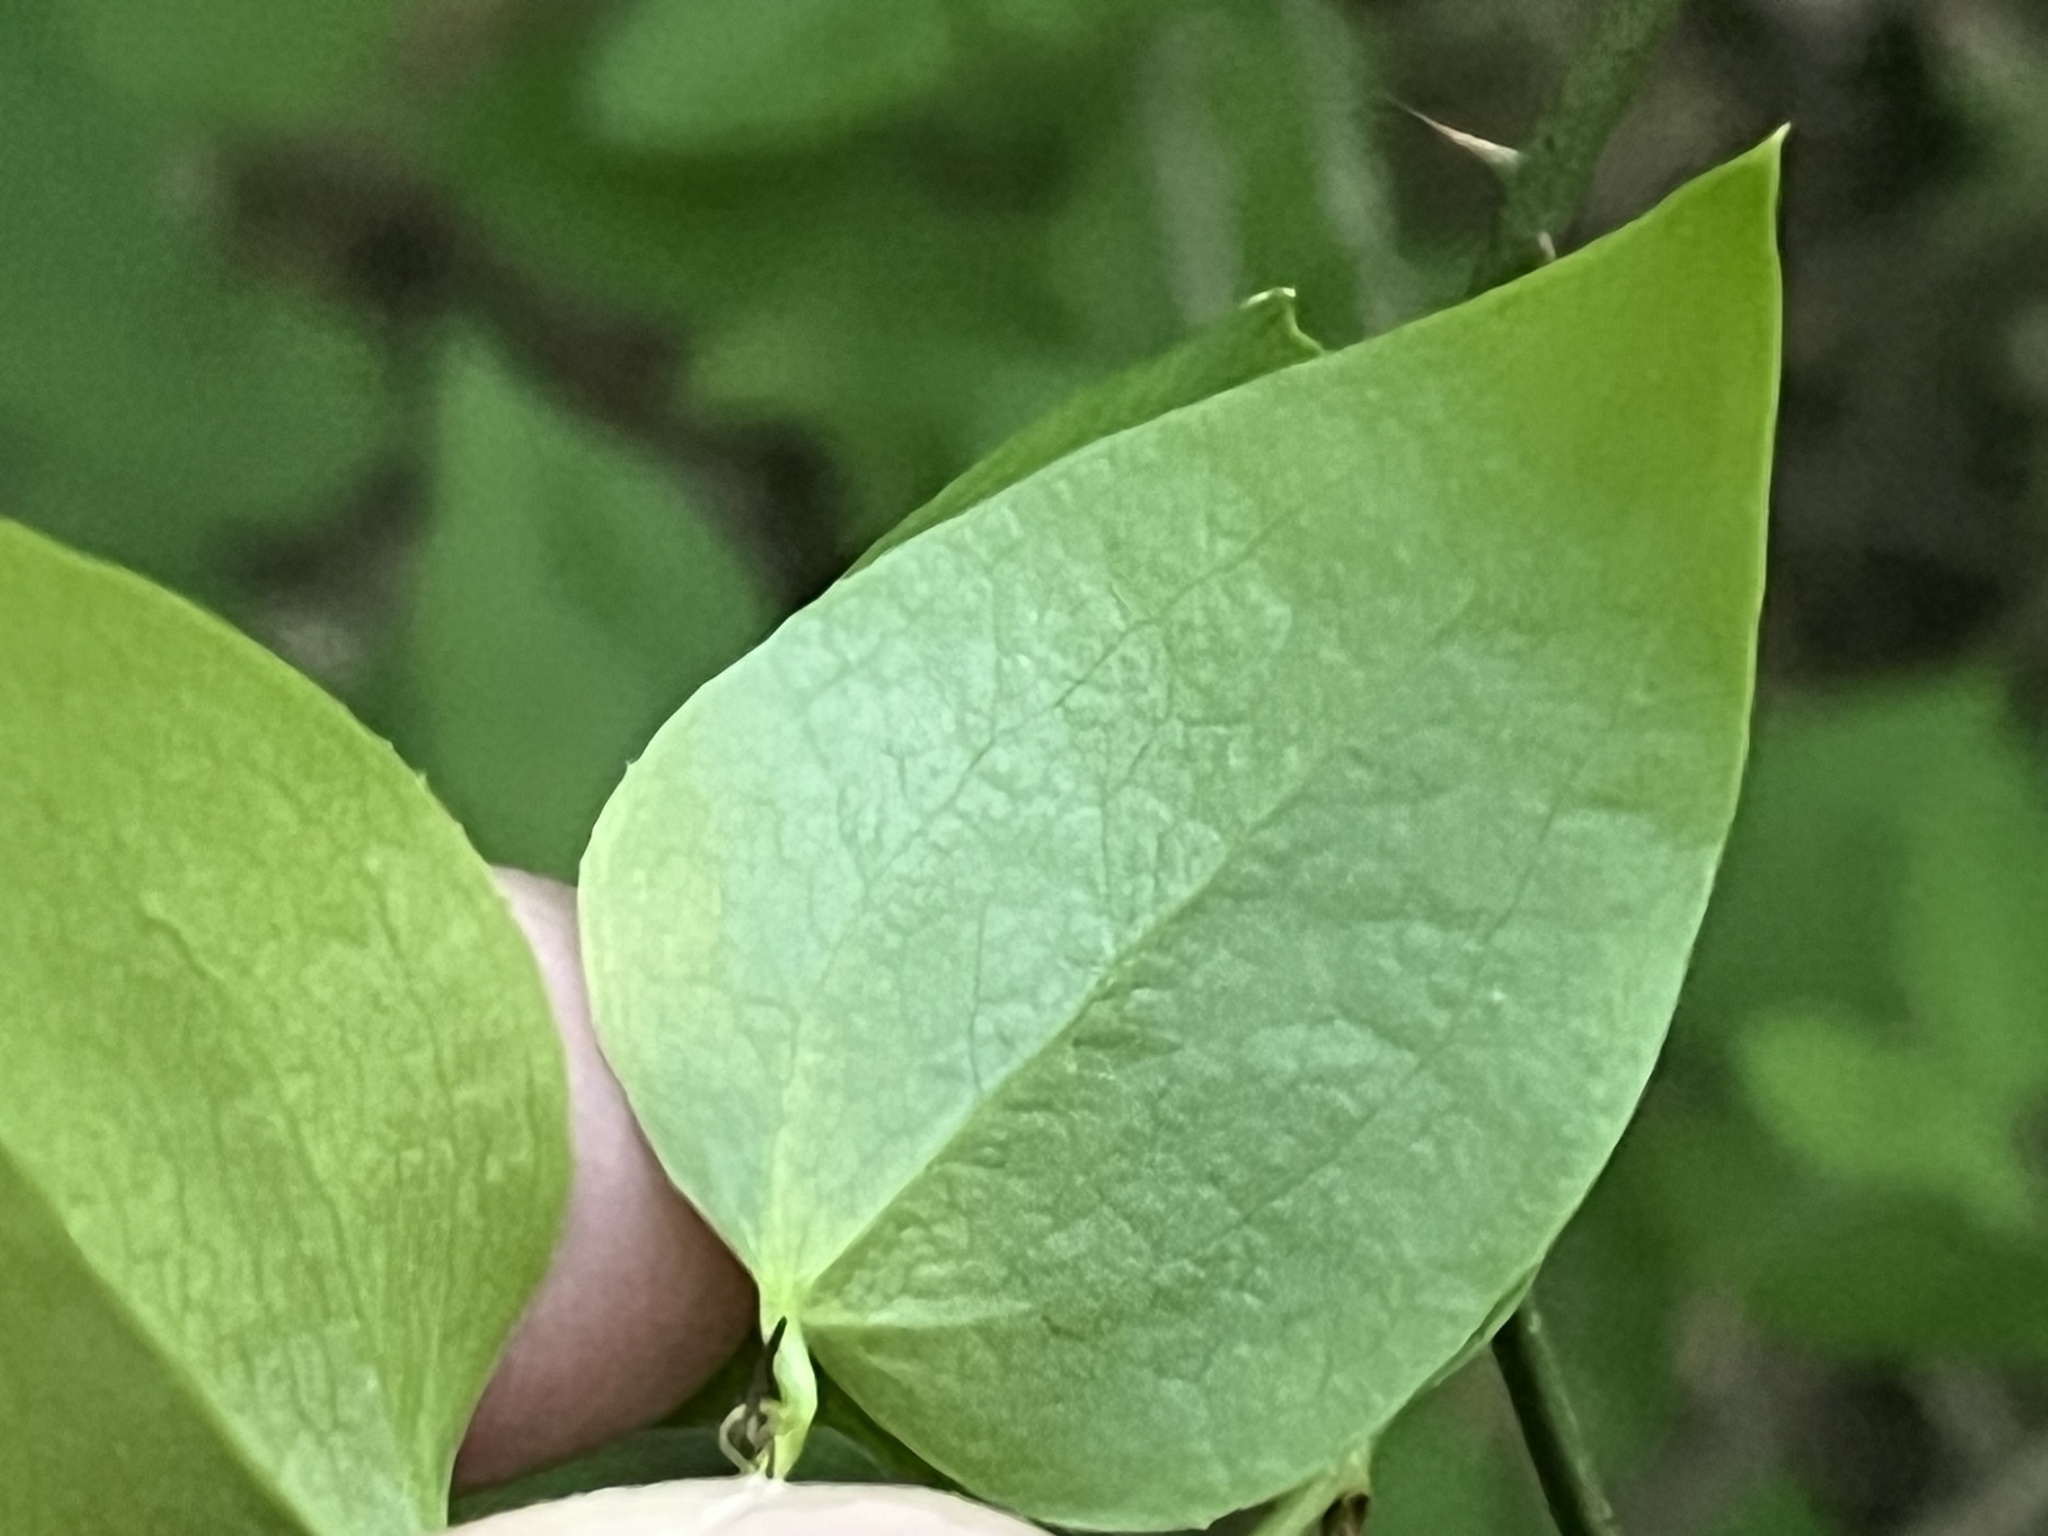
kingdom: Plantae
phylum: Tracheophyta
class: Liliopsida
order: Liliales
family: Smilacaceae
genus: Smilax
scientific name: Smilax rotundifolia
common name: Bullbriar
